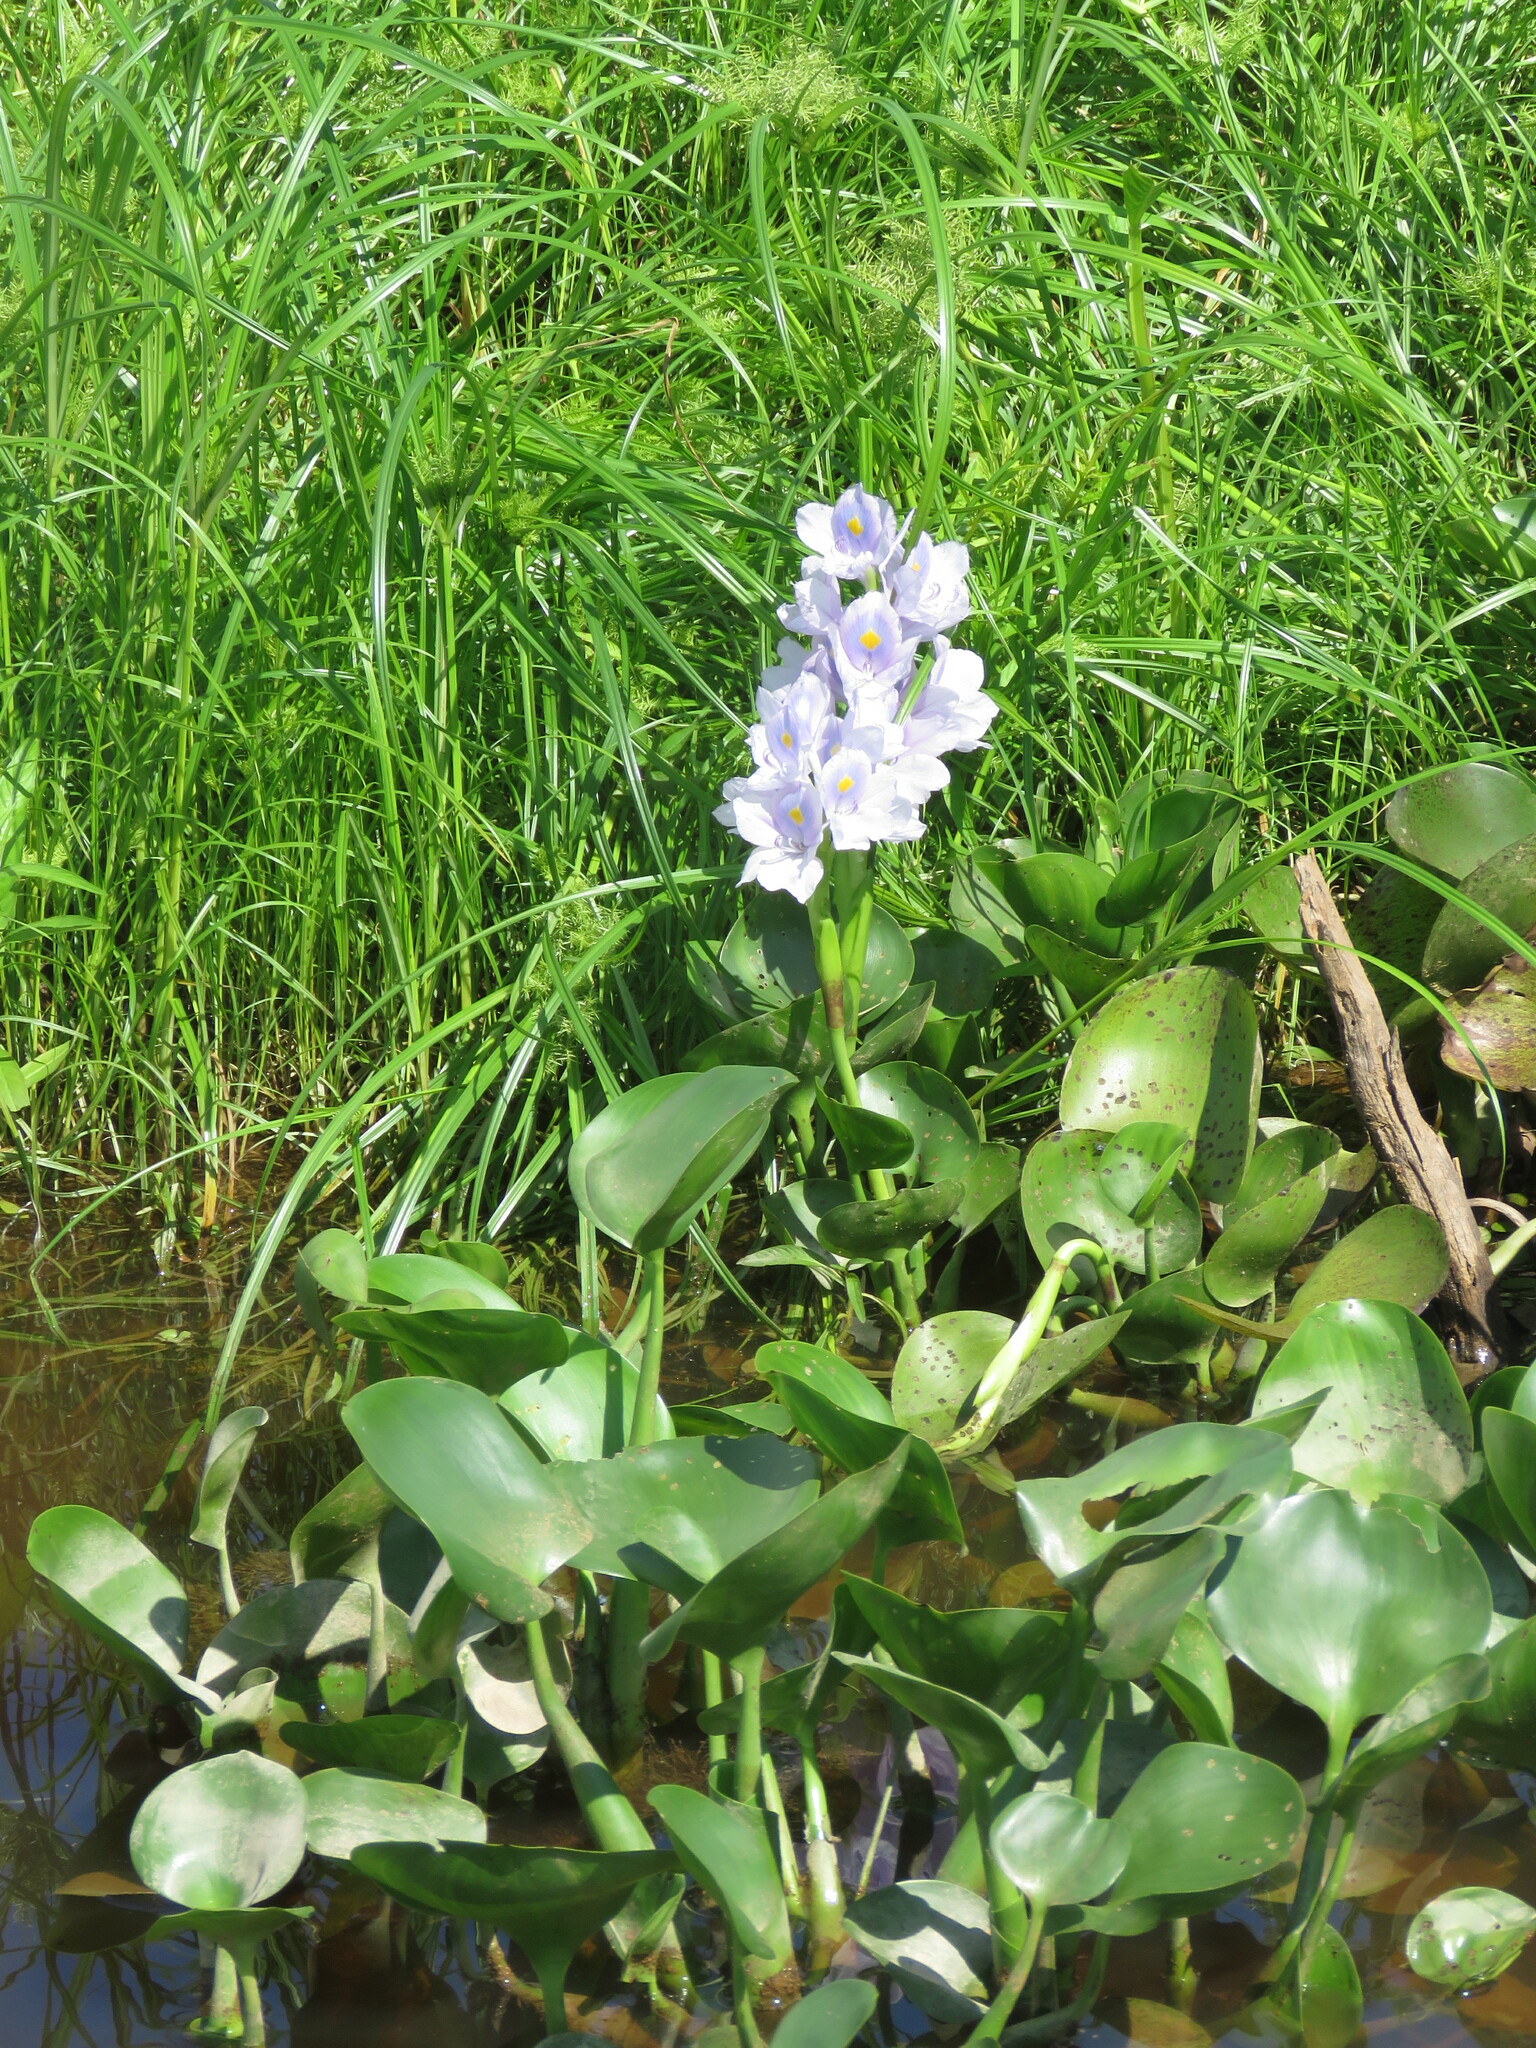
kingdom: Plantae
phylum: Tracheophyta
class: Liliopsida
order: Commelinales
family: Pontederiaceae
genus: Pontederia
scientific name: Pontederia crassipes
